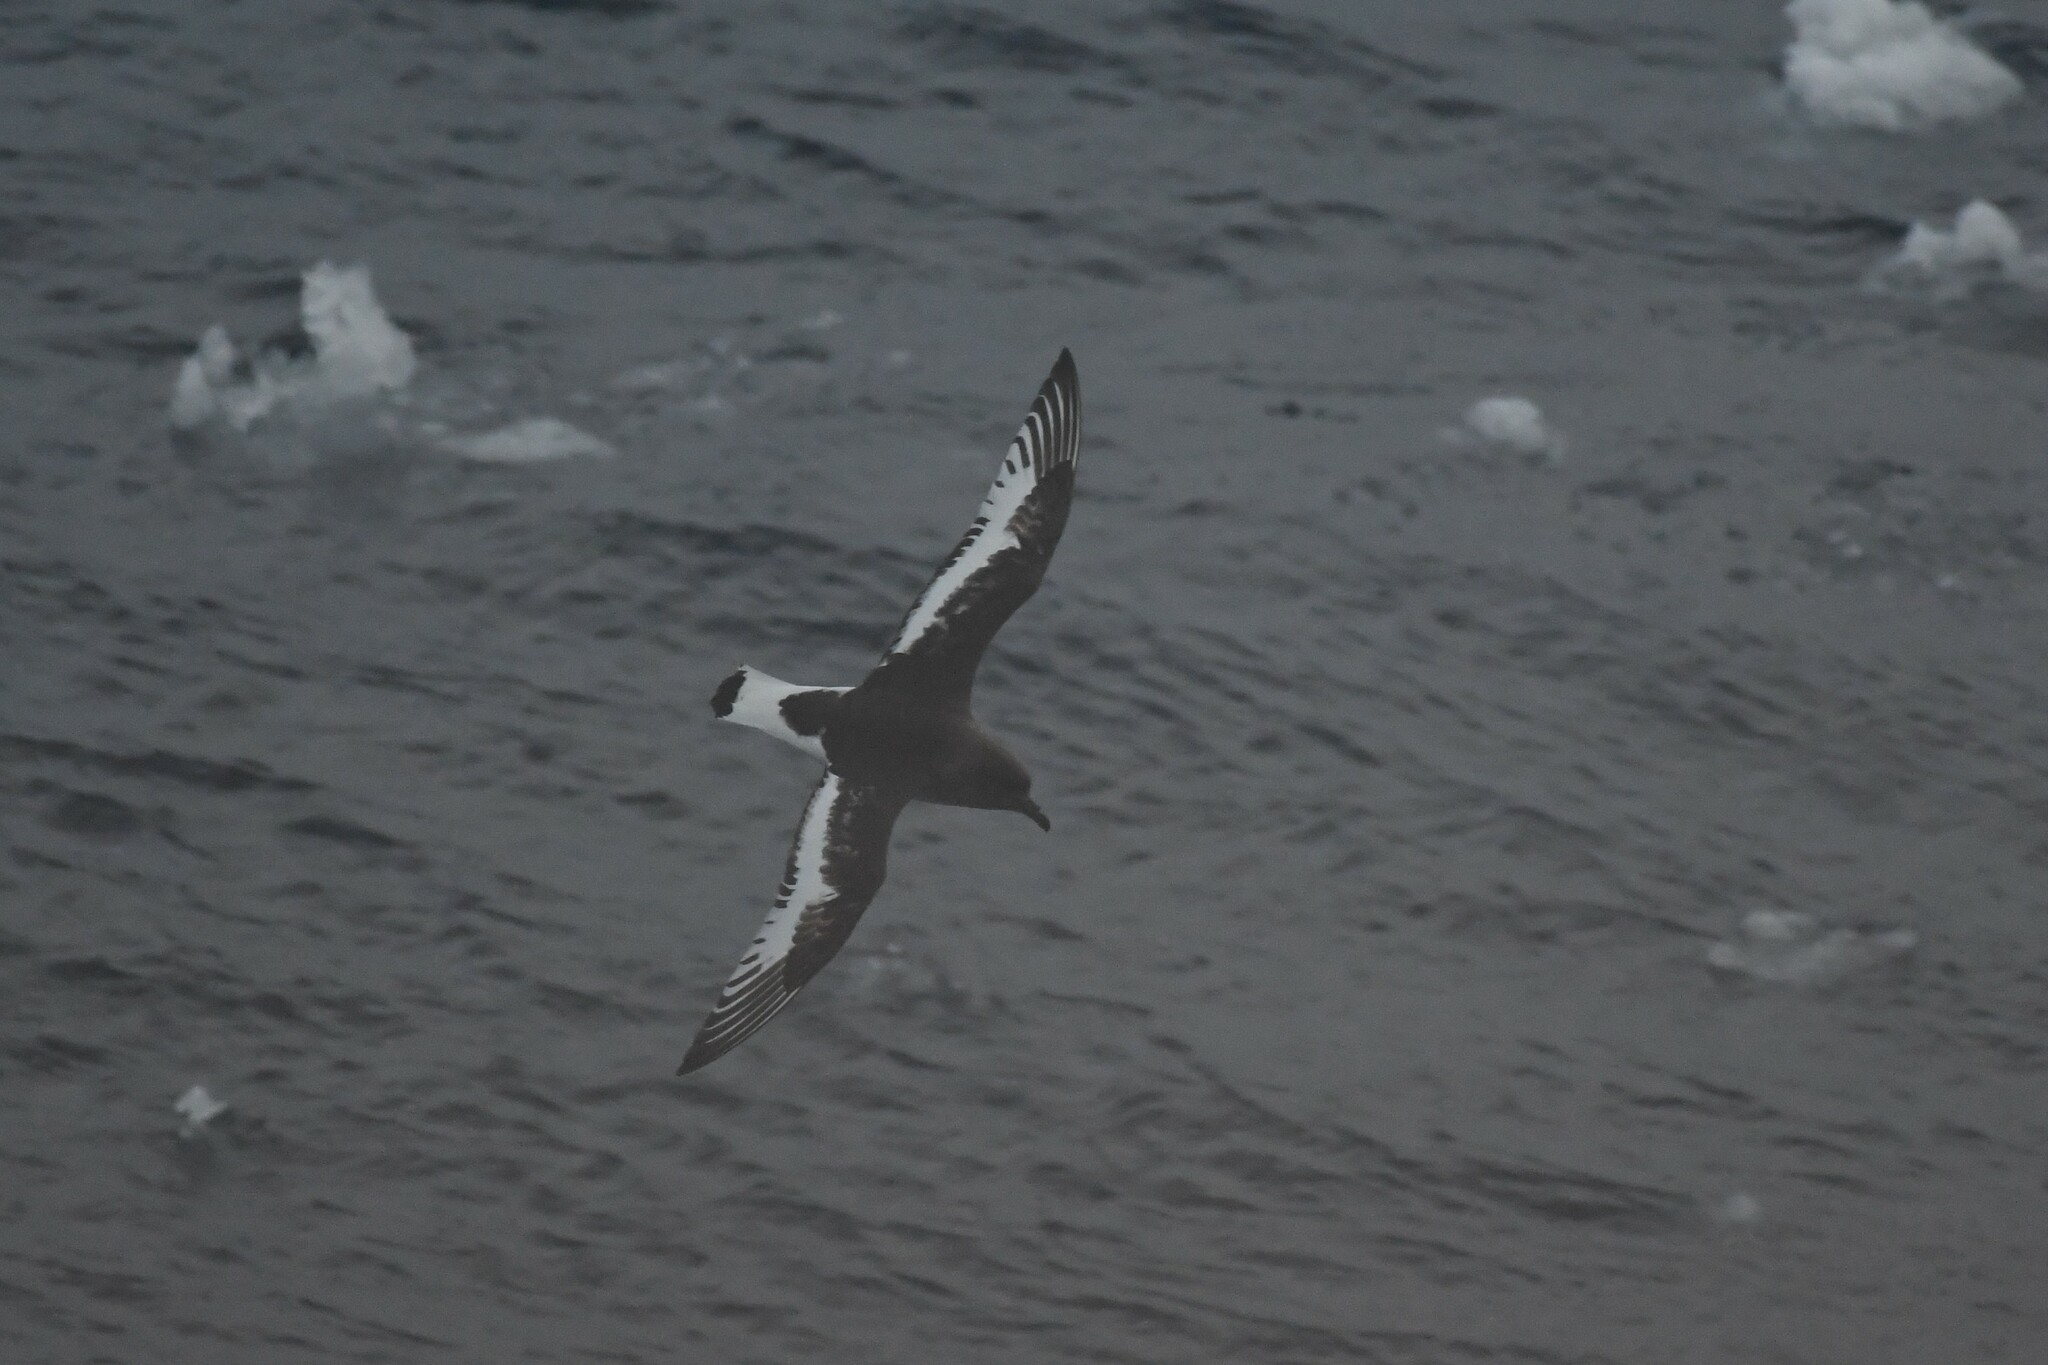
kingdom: Animalia
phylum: Chordata
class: Aves
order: Procellariiformes
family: Procellariidae
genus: Thalassoica
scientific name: Thalassoica antarctica
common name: Antarctic petrel
